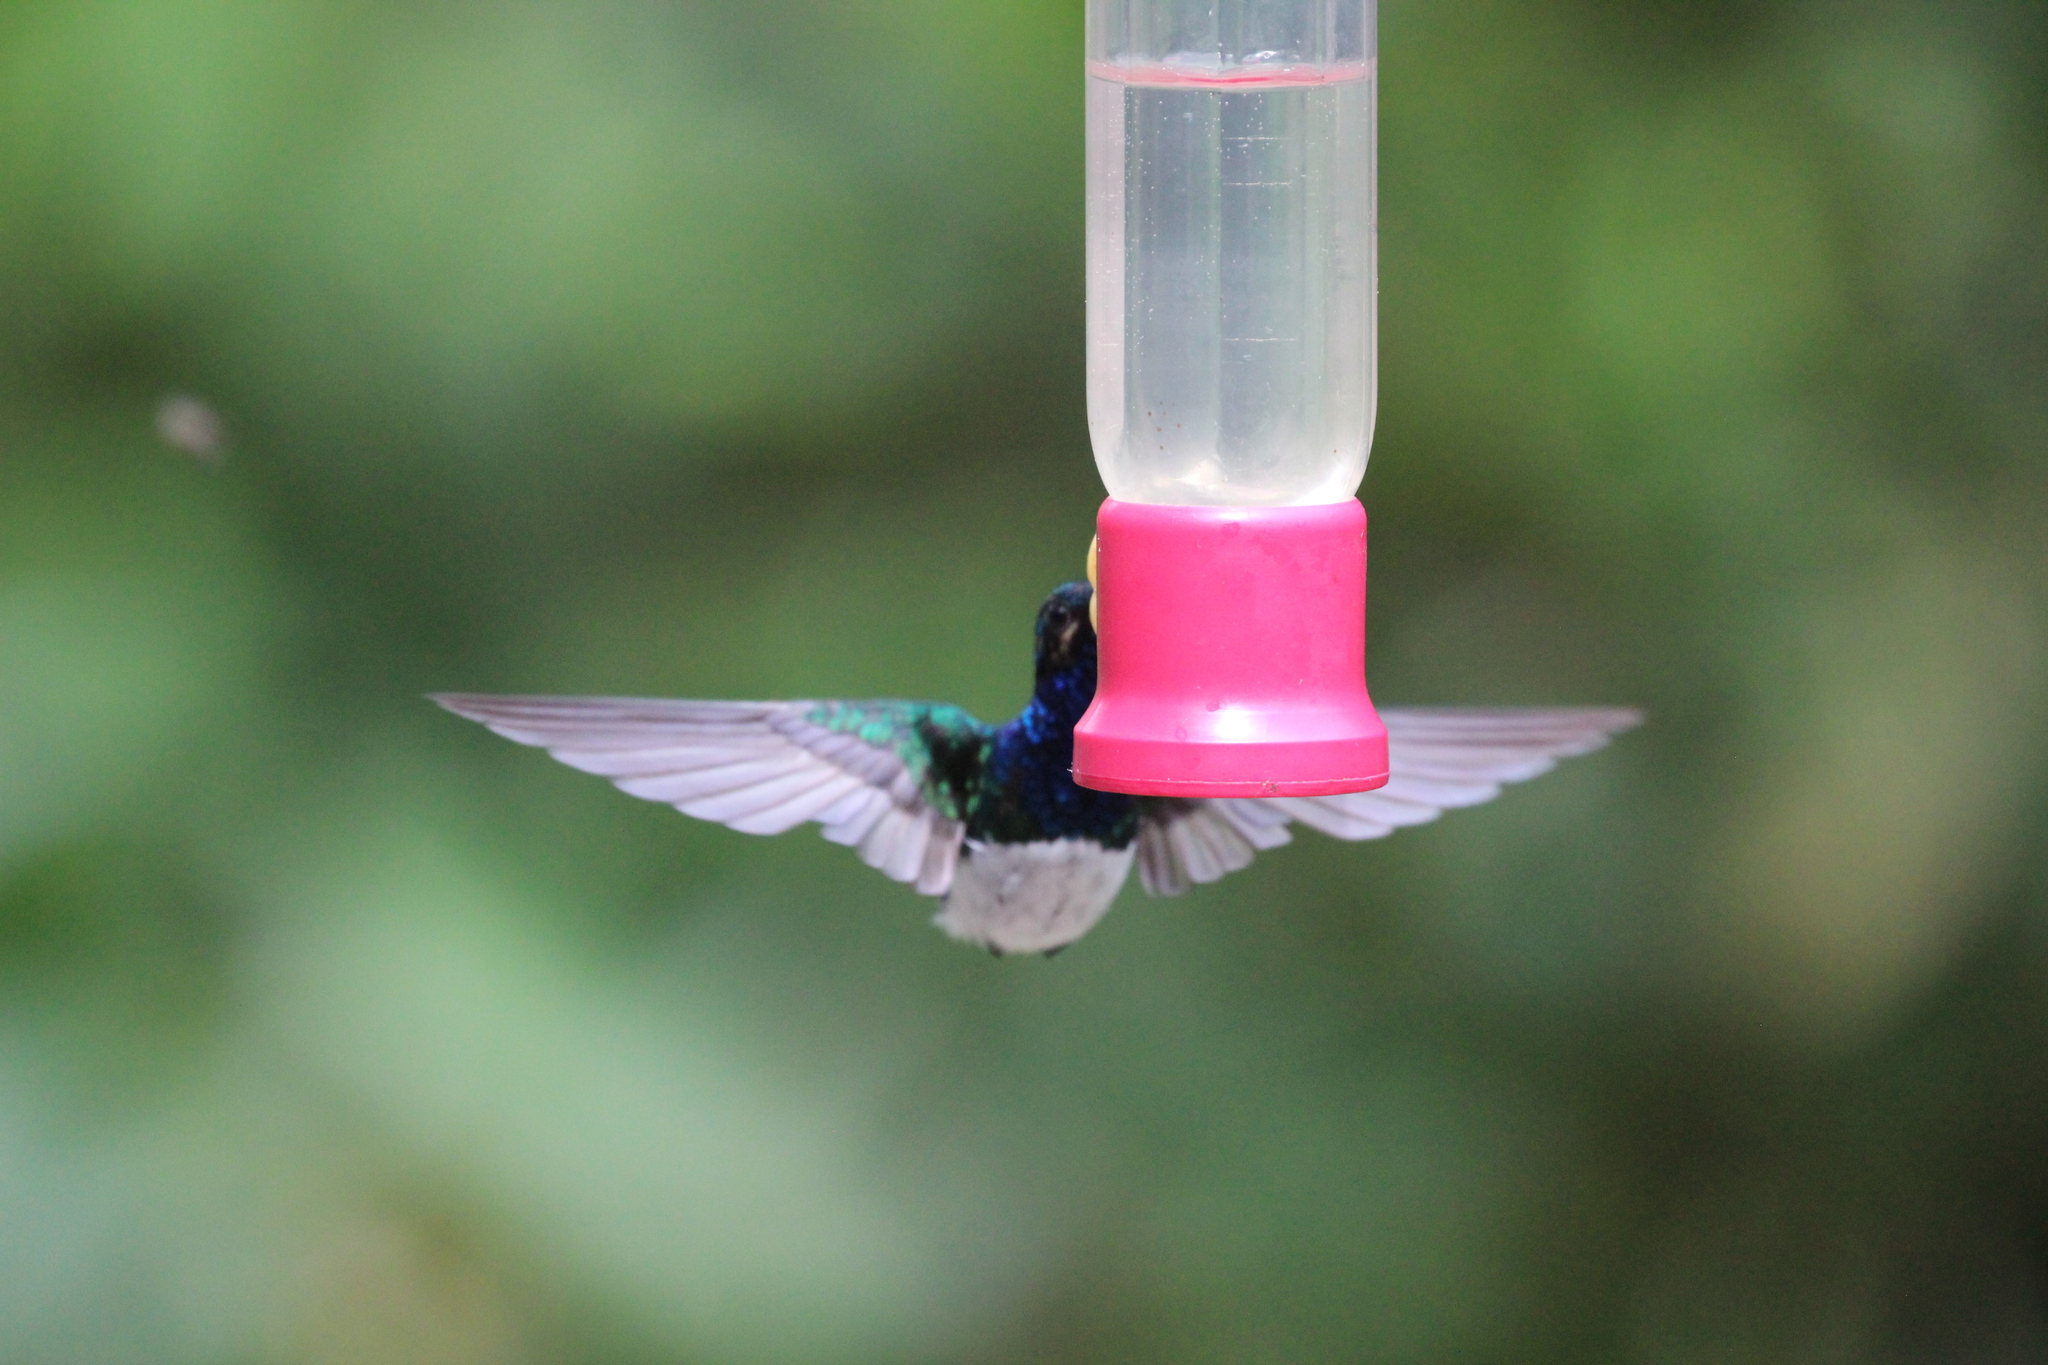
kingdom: Animalia
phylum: Chordata
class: Aves
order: Apodiformes
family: Trochilidae
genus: Florisuga
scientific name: Florisuga mellivora
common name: White-necked jacobin
